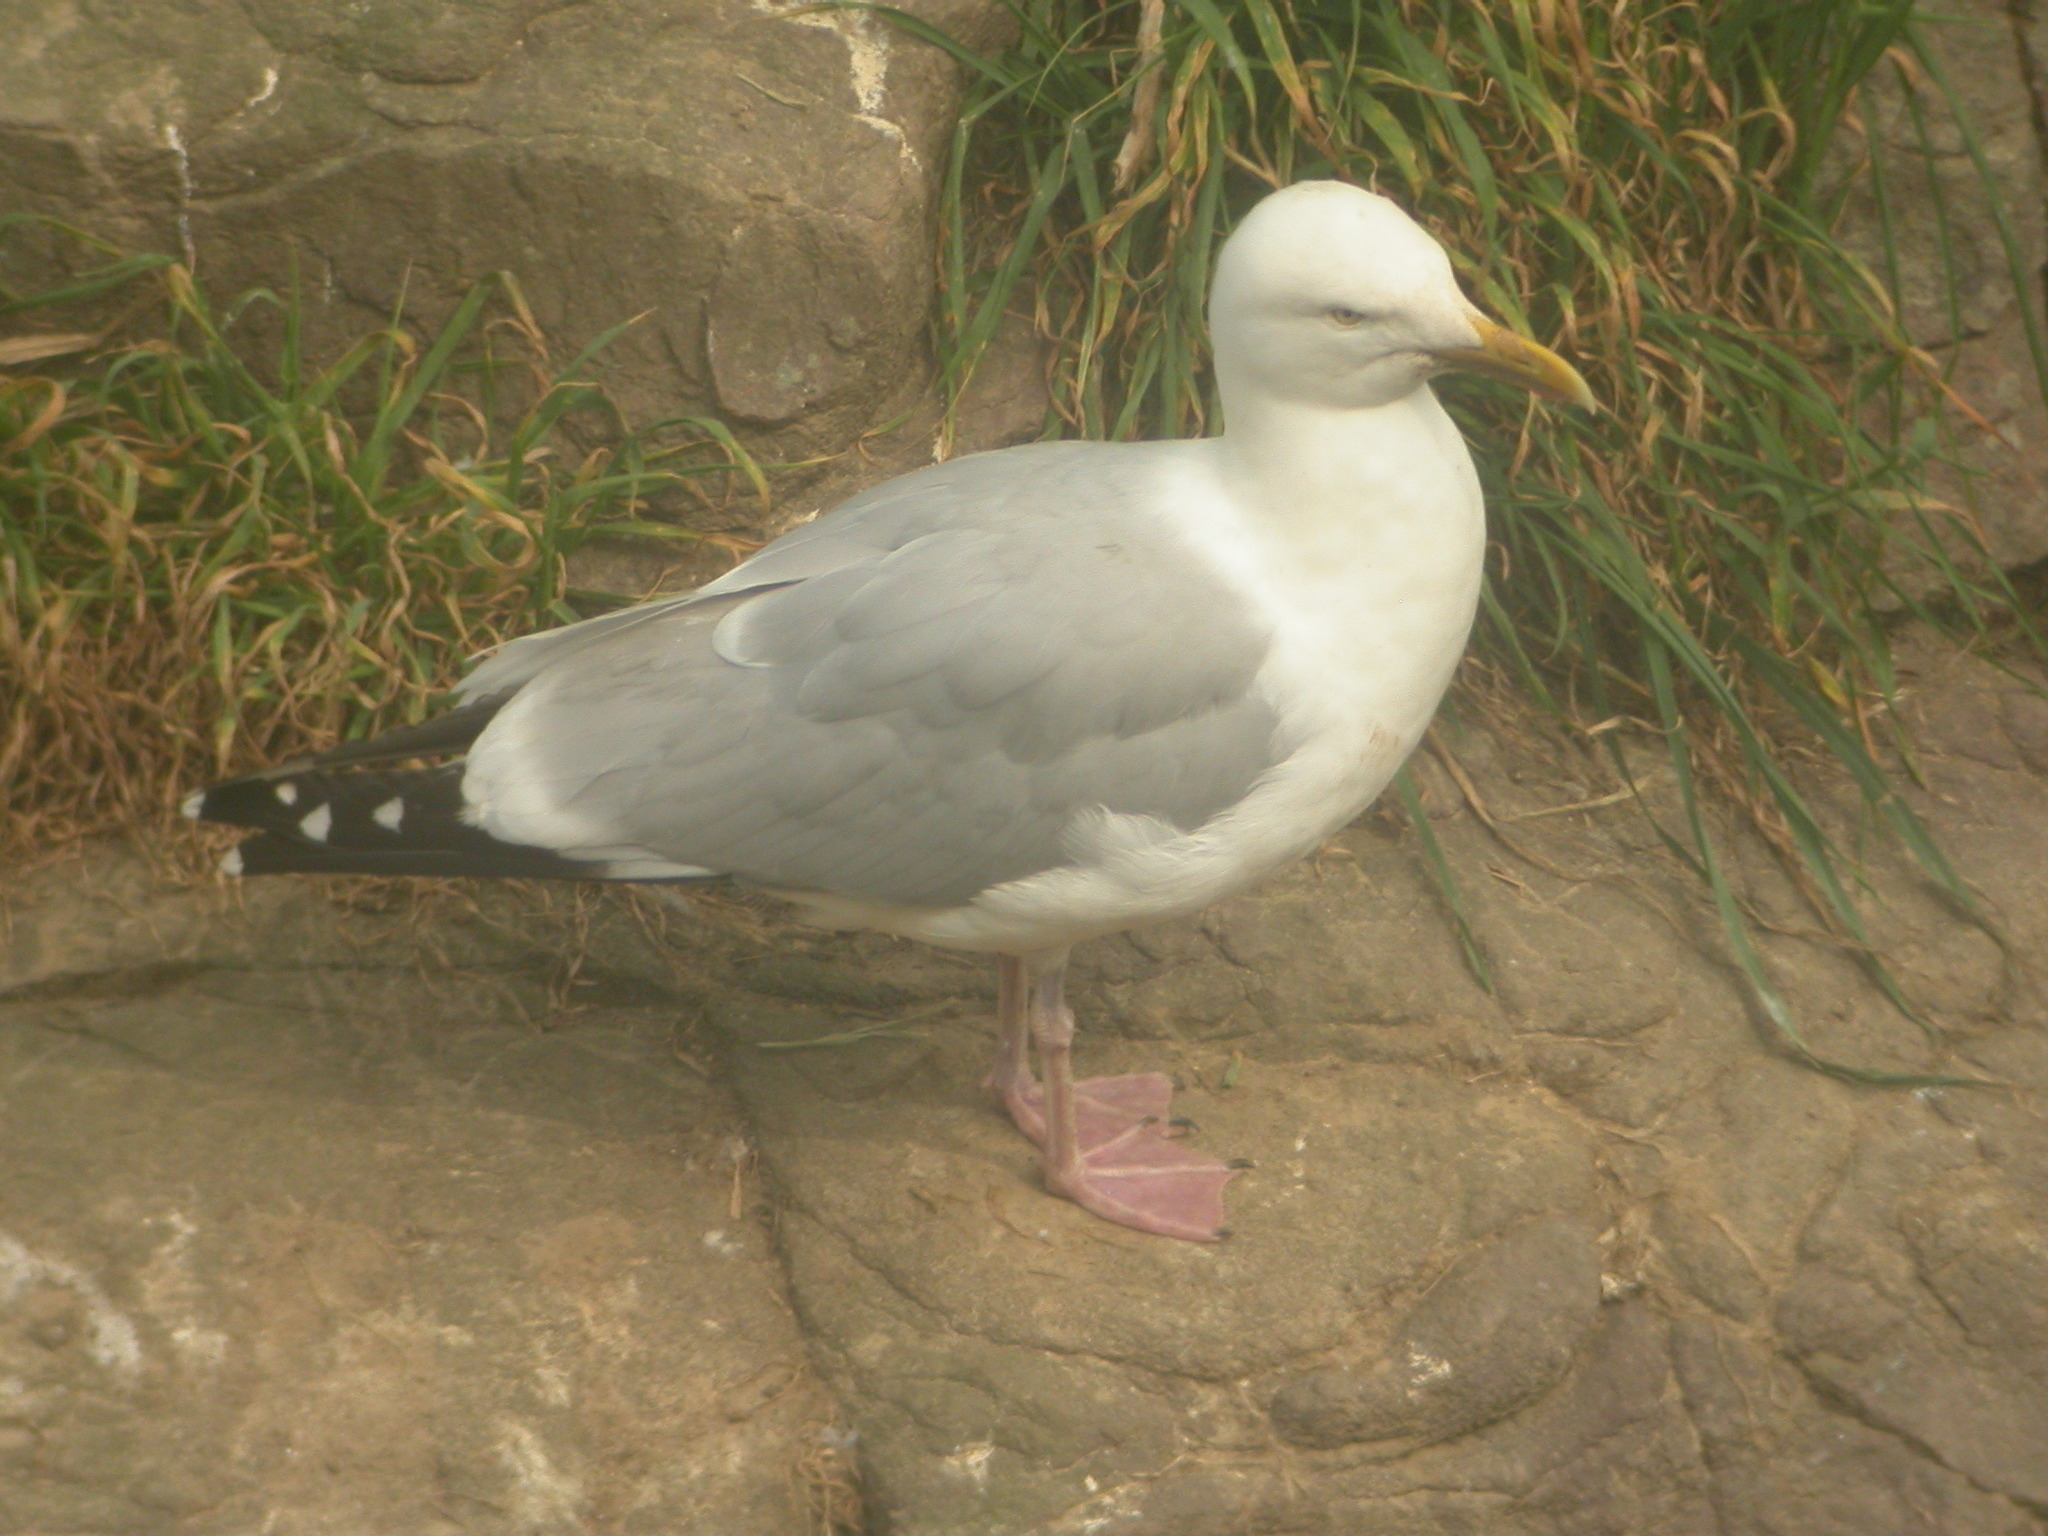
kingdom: Animalia
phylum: Chordata
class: Aves
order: Charadriiformes
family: Laridae
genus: Larus
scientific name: Larus argentatus
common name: Herring gull
